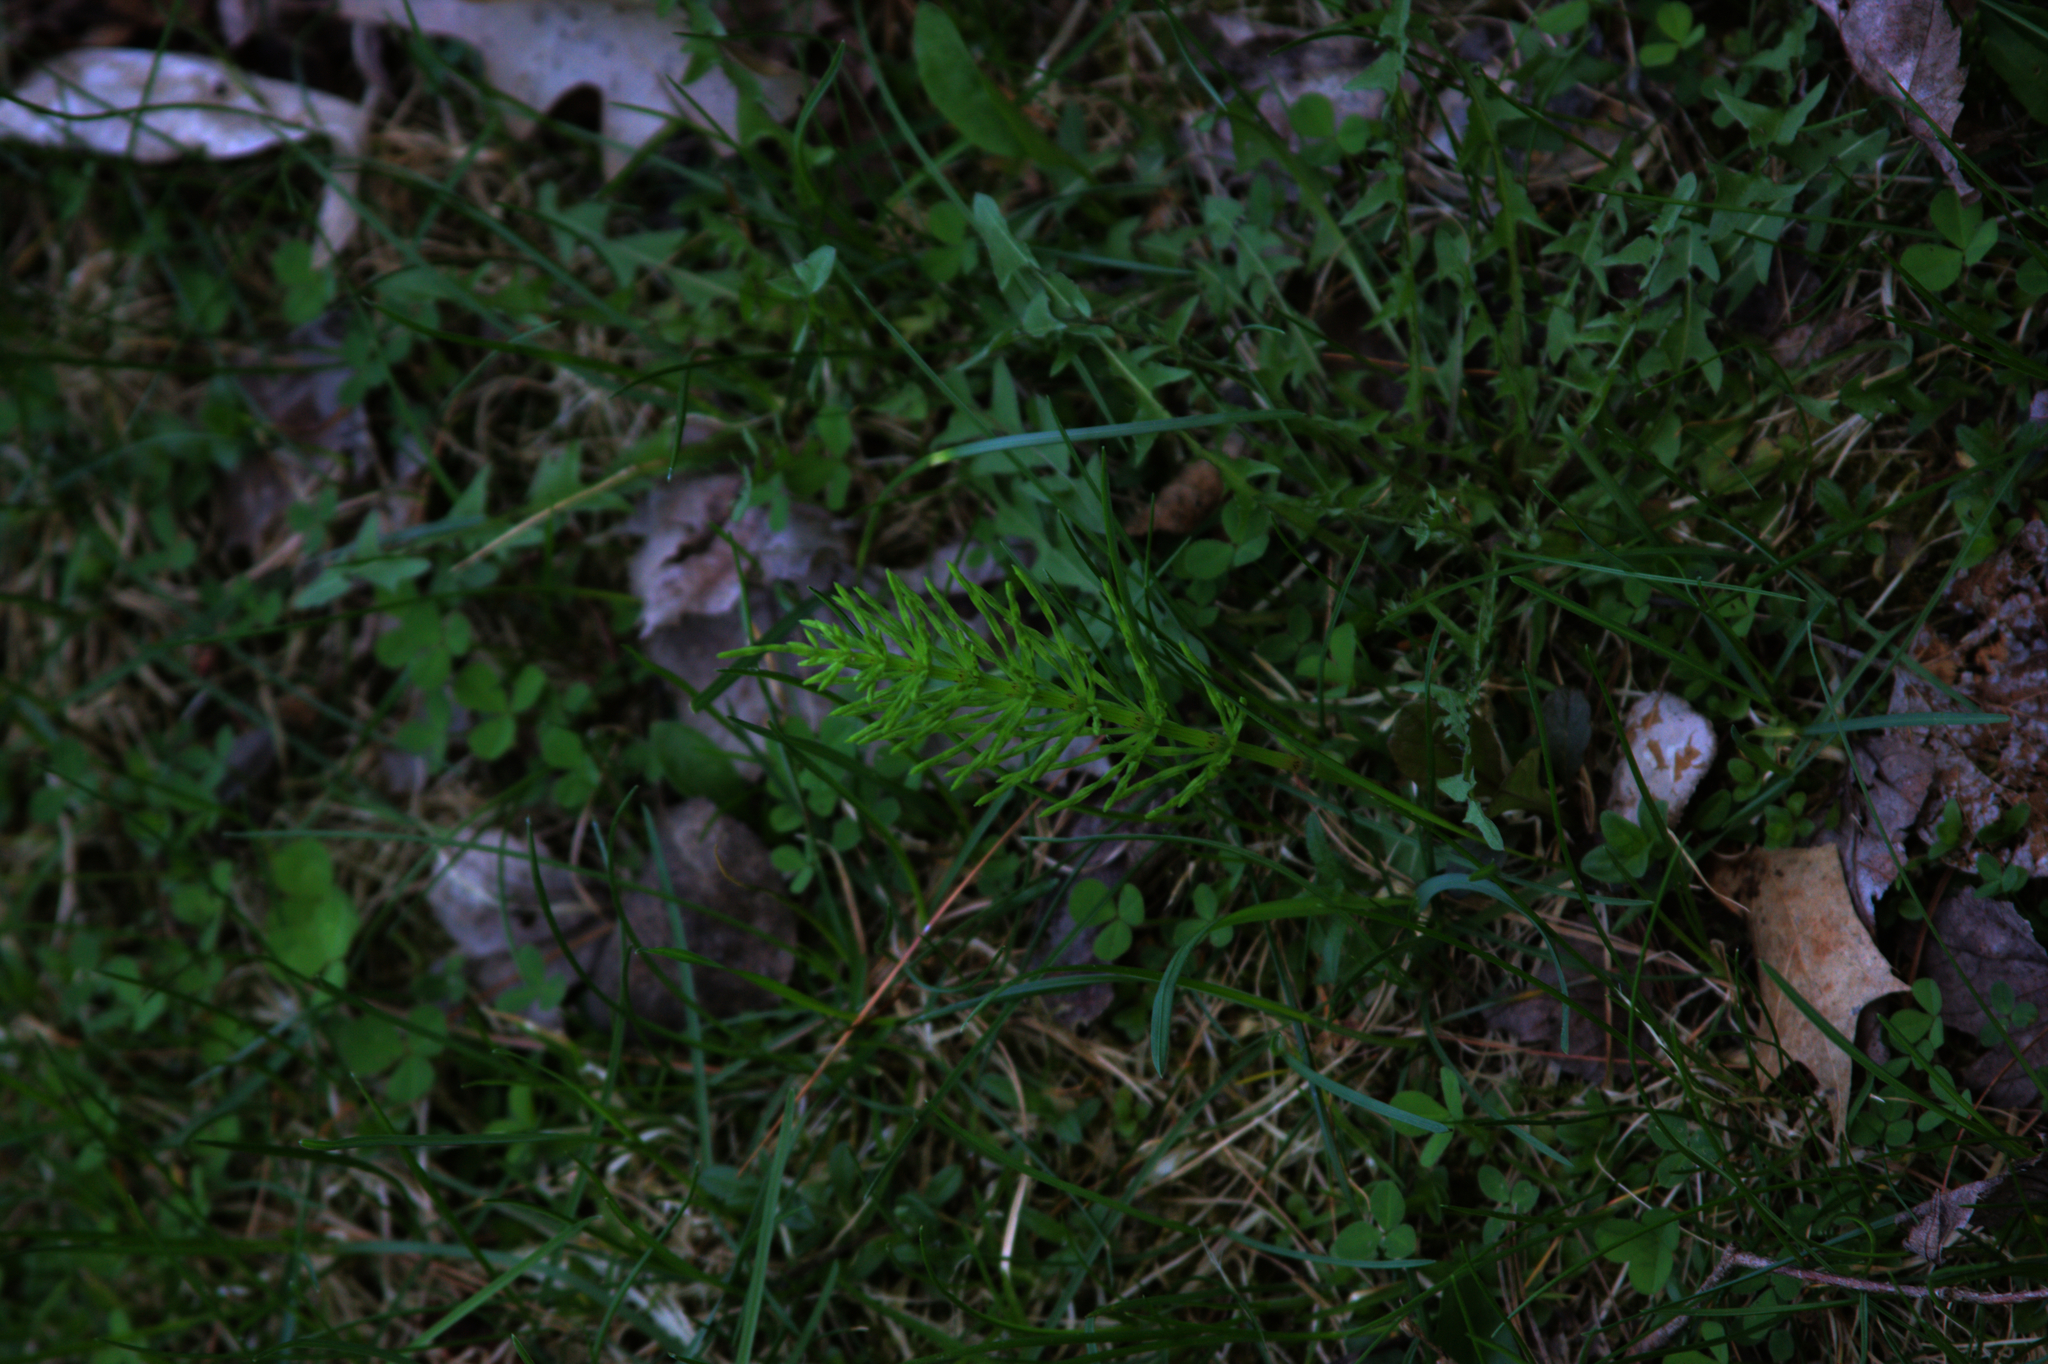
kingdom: Plantae
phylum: Tracheophyta
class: Polypodiopsida
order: Equisetales
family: Equisetaceae
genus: Equisetum
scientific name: Equisetum arvense
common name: Field horsetail
